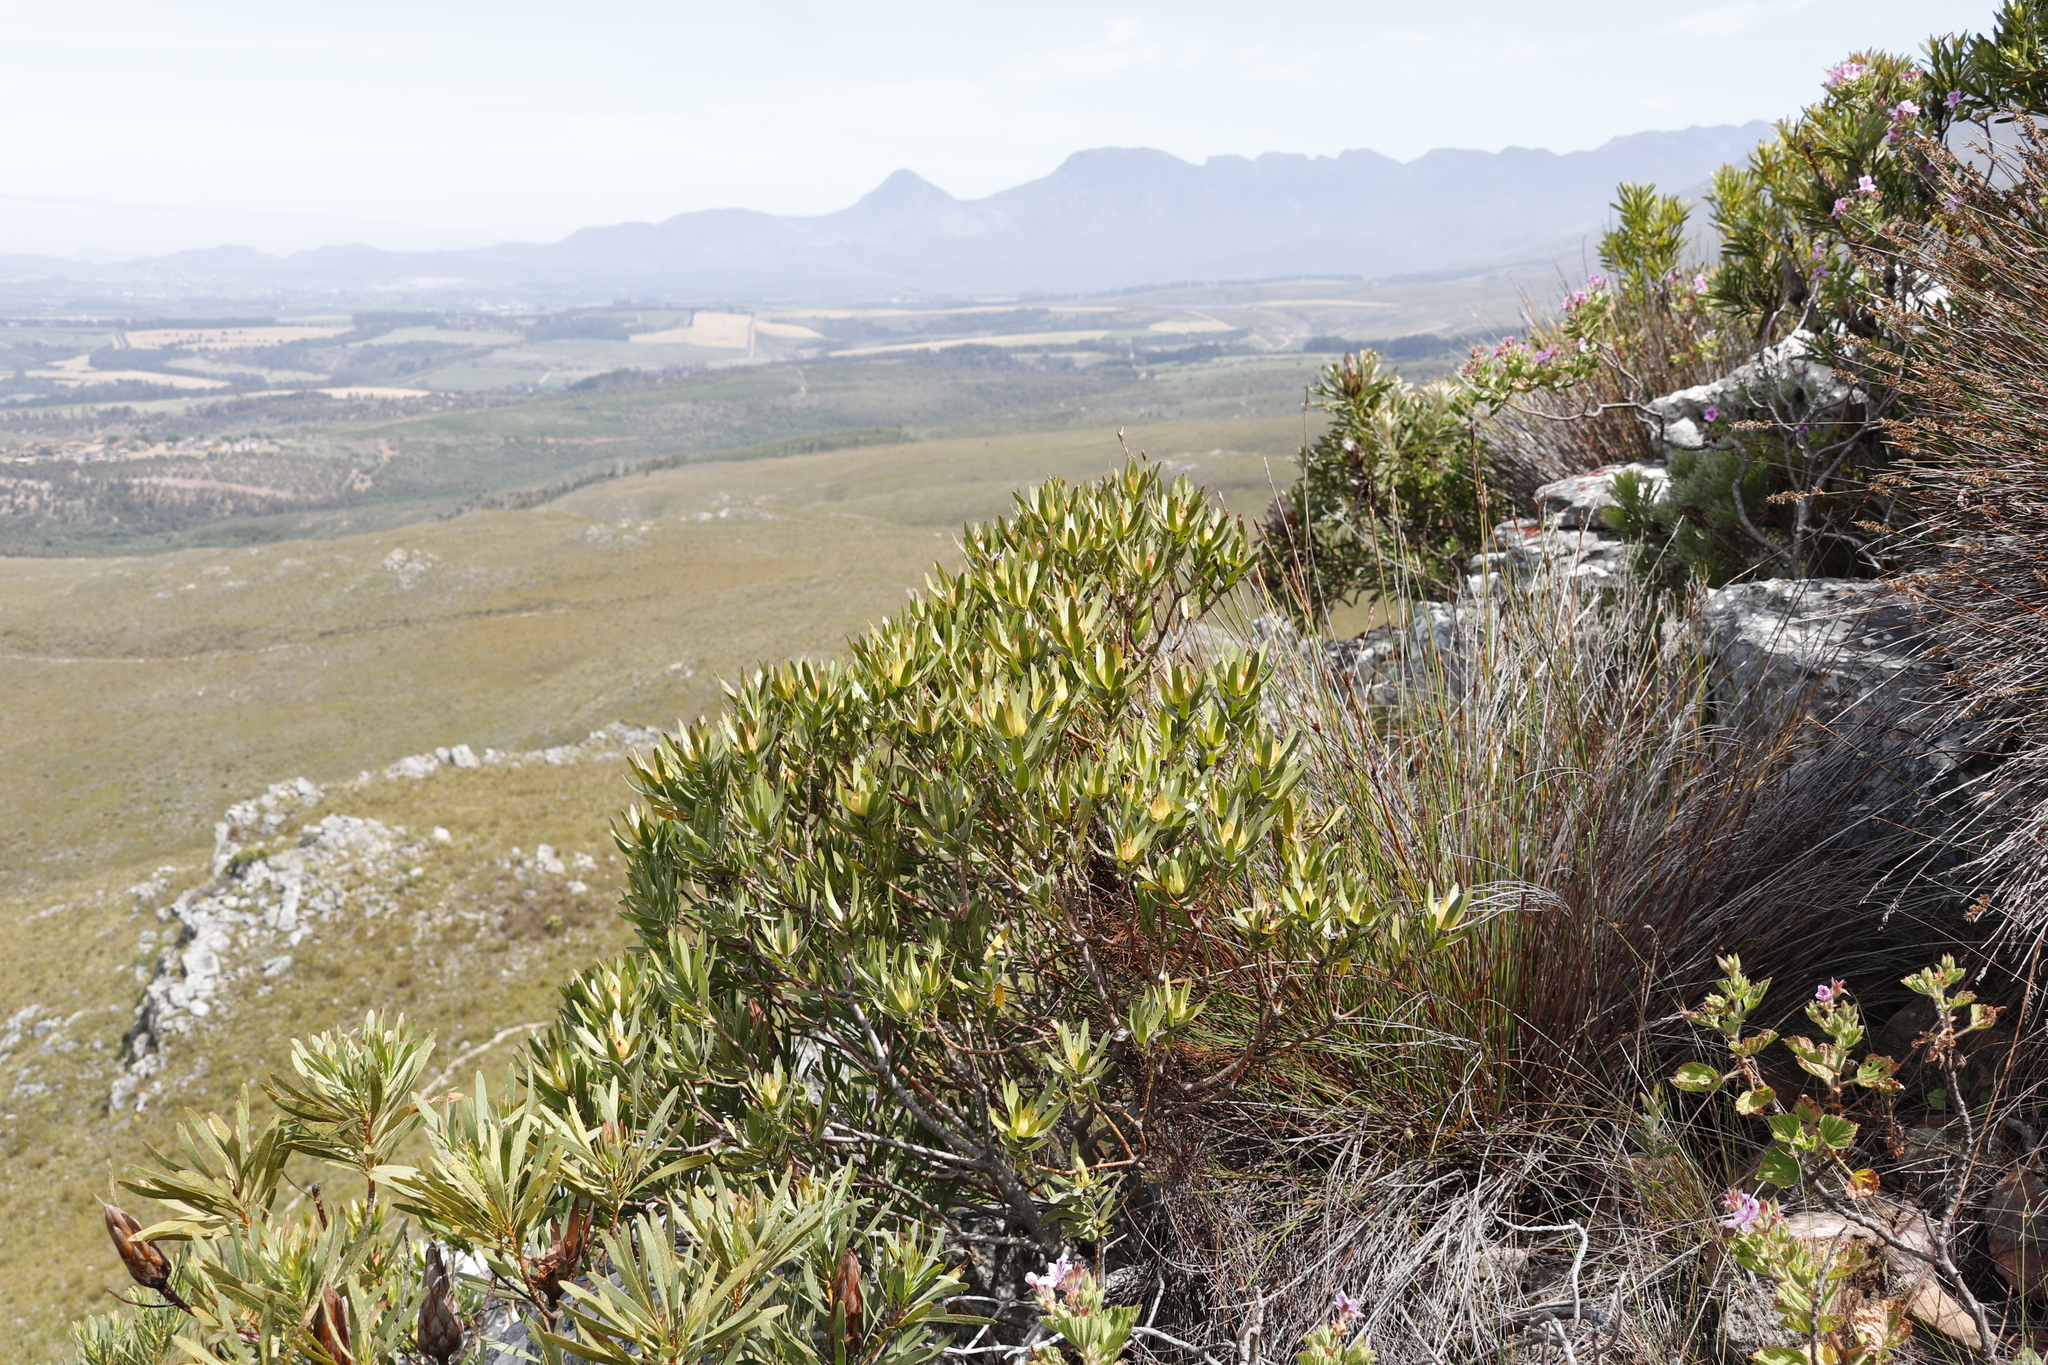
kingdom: Plantae
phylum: Tracheophyta
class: Magnoliopsida
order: Proteales
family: Proteaceae
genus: Leucadendron
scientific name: Leucadendron laureolum
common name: Golden sunshinebush
